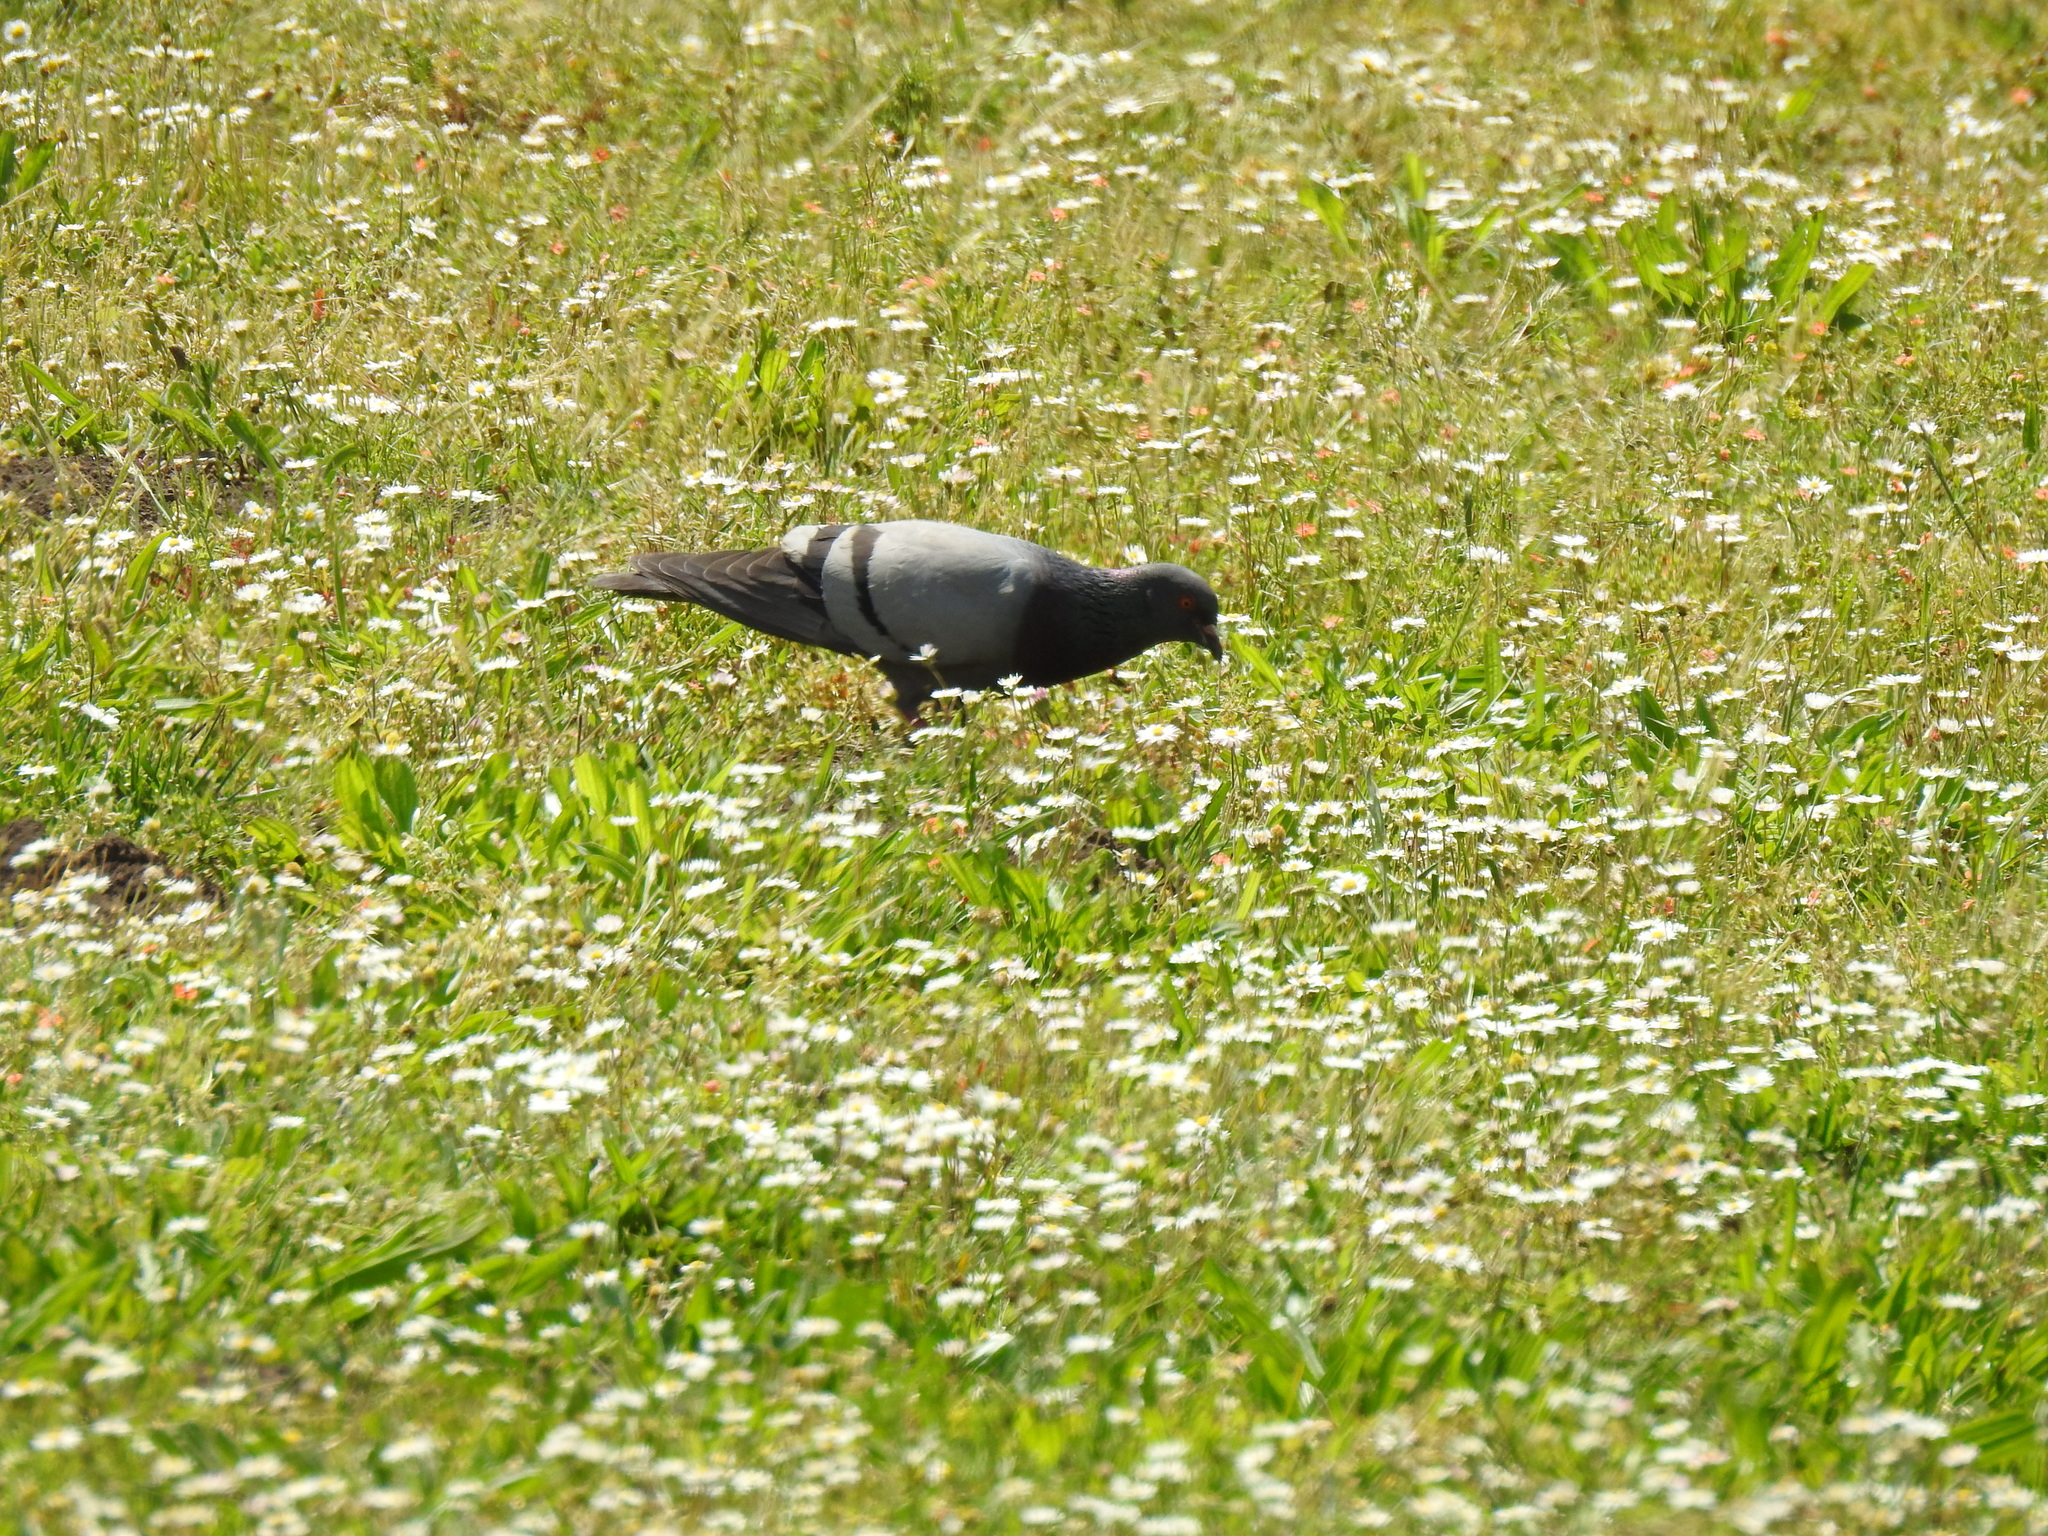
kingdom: Animalia
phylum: Chordata
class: Aves
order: Columbiformes
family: Columbidae
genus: Columba
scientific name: Columba livia
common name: Rock pigeon
